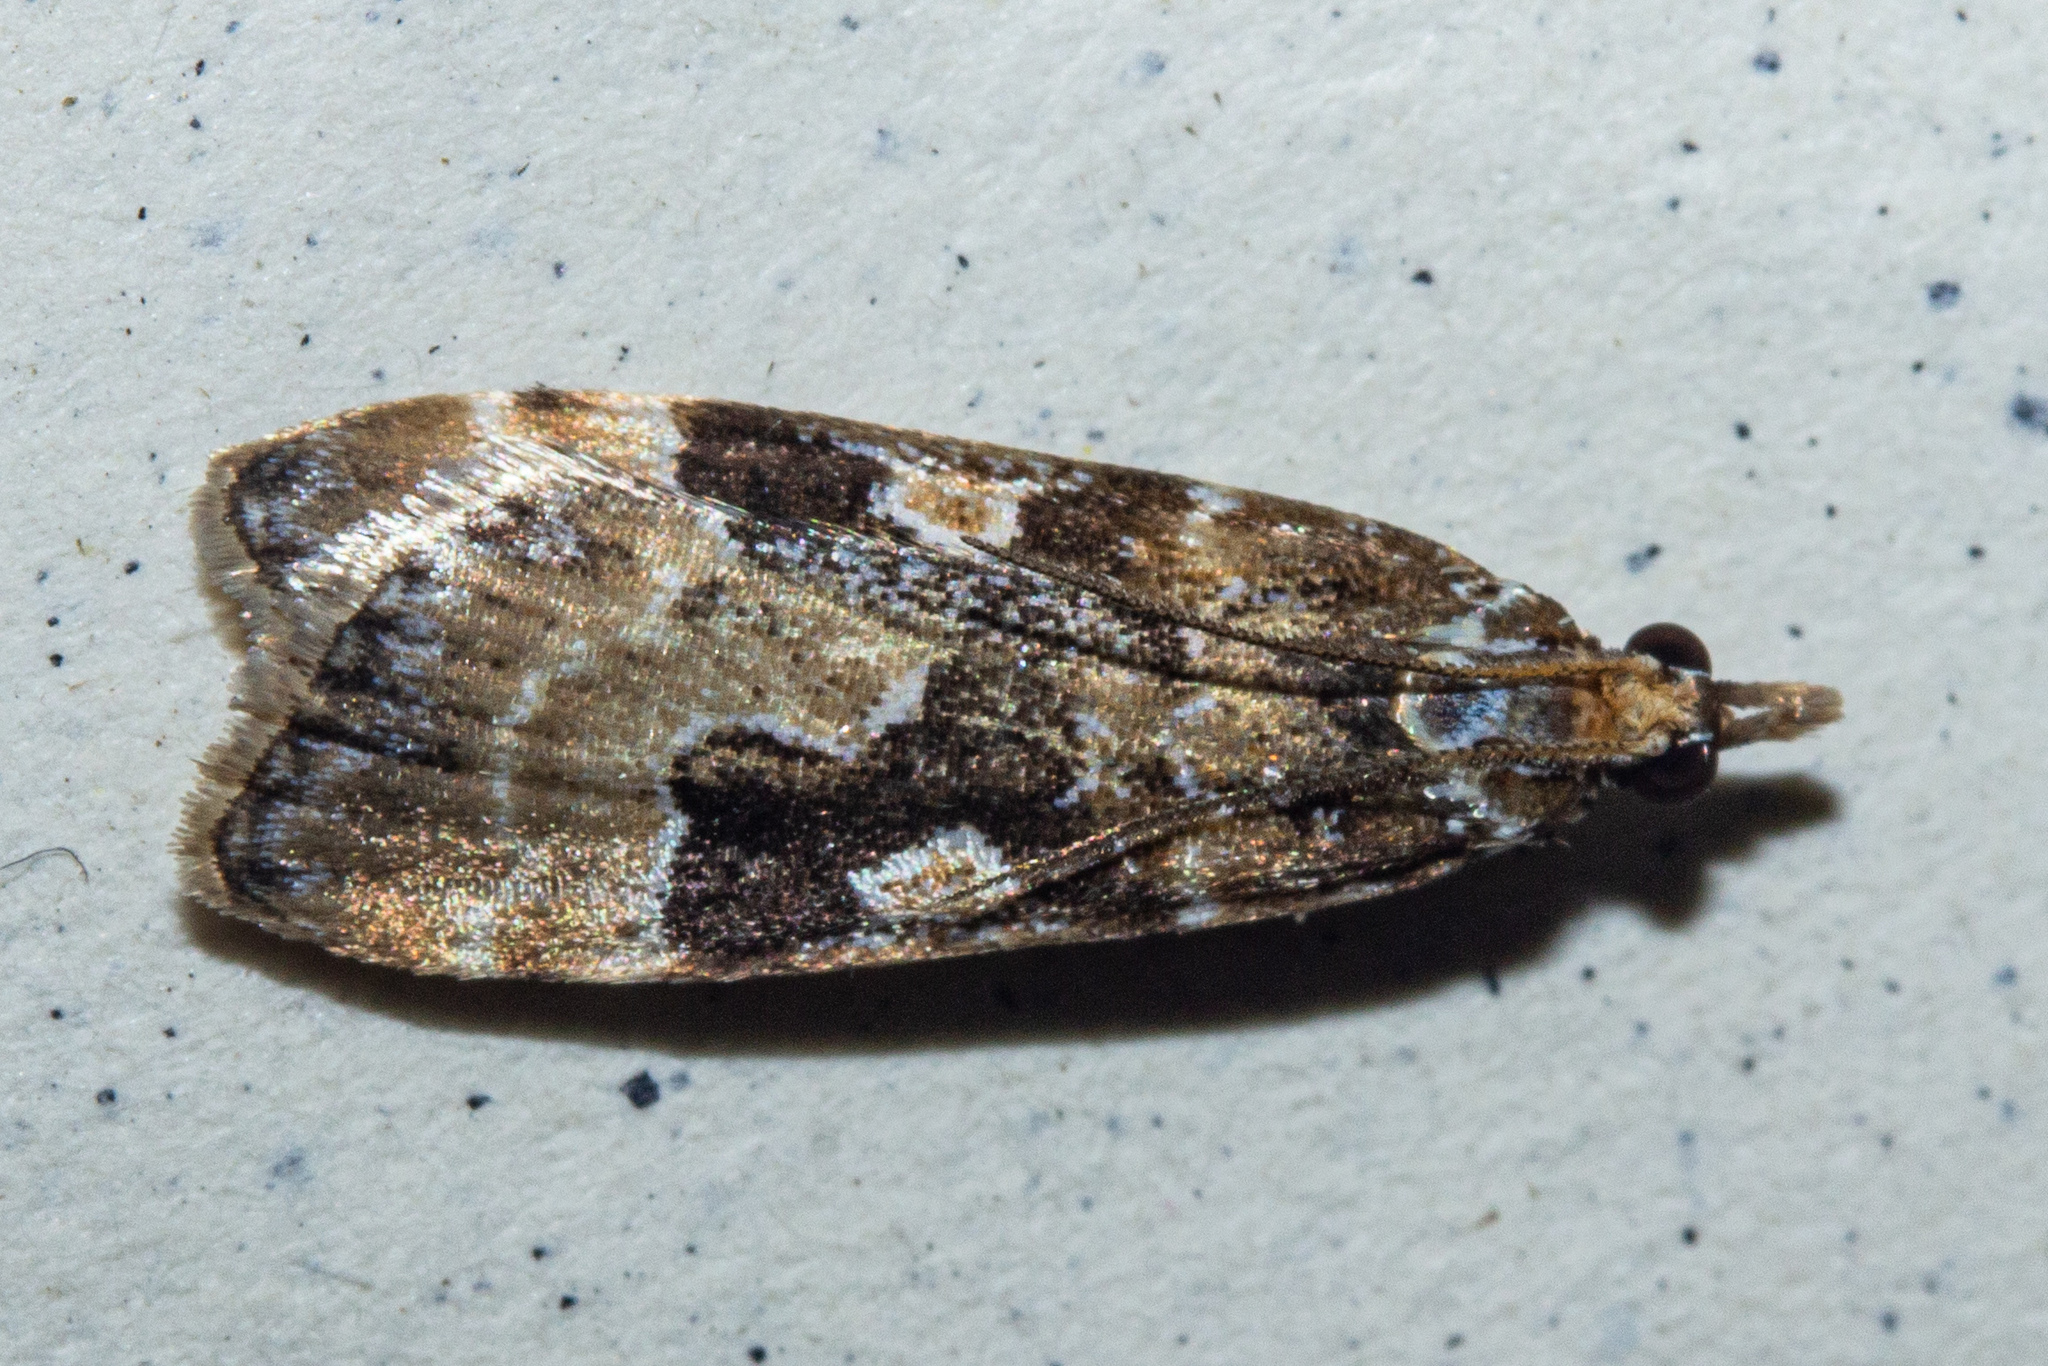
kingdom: Animalia
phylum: Arthropoda
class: Insecta
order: Lepidoptera
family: Crambidae
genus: Scoparia
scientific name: Scoparia ustimacula
